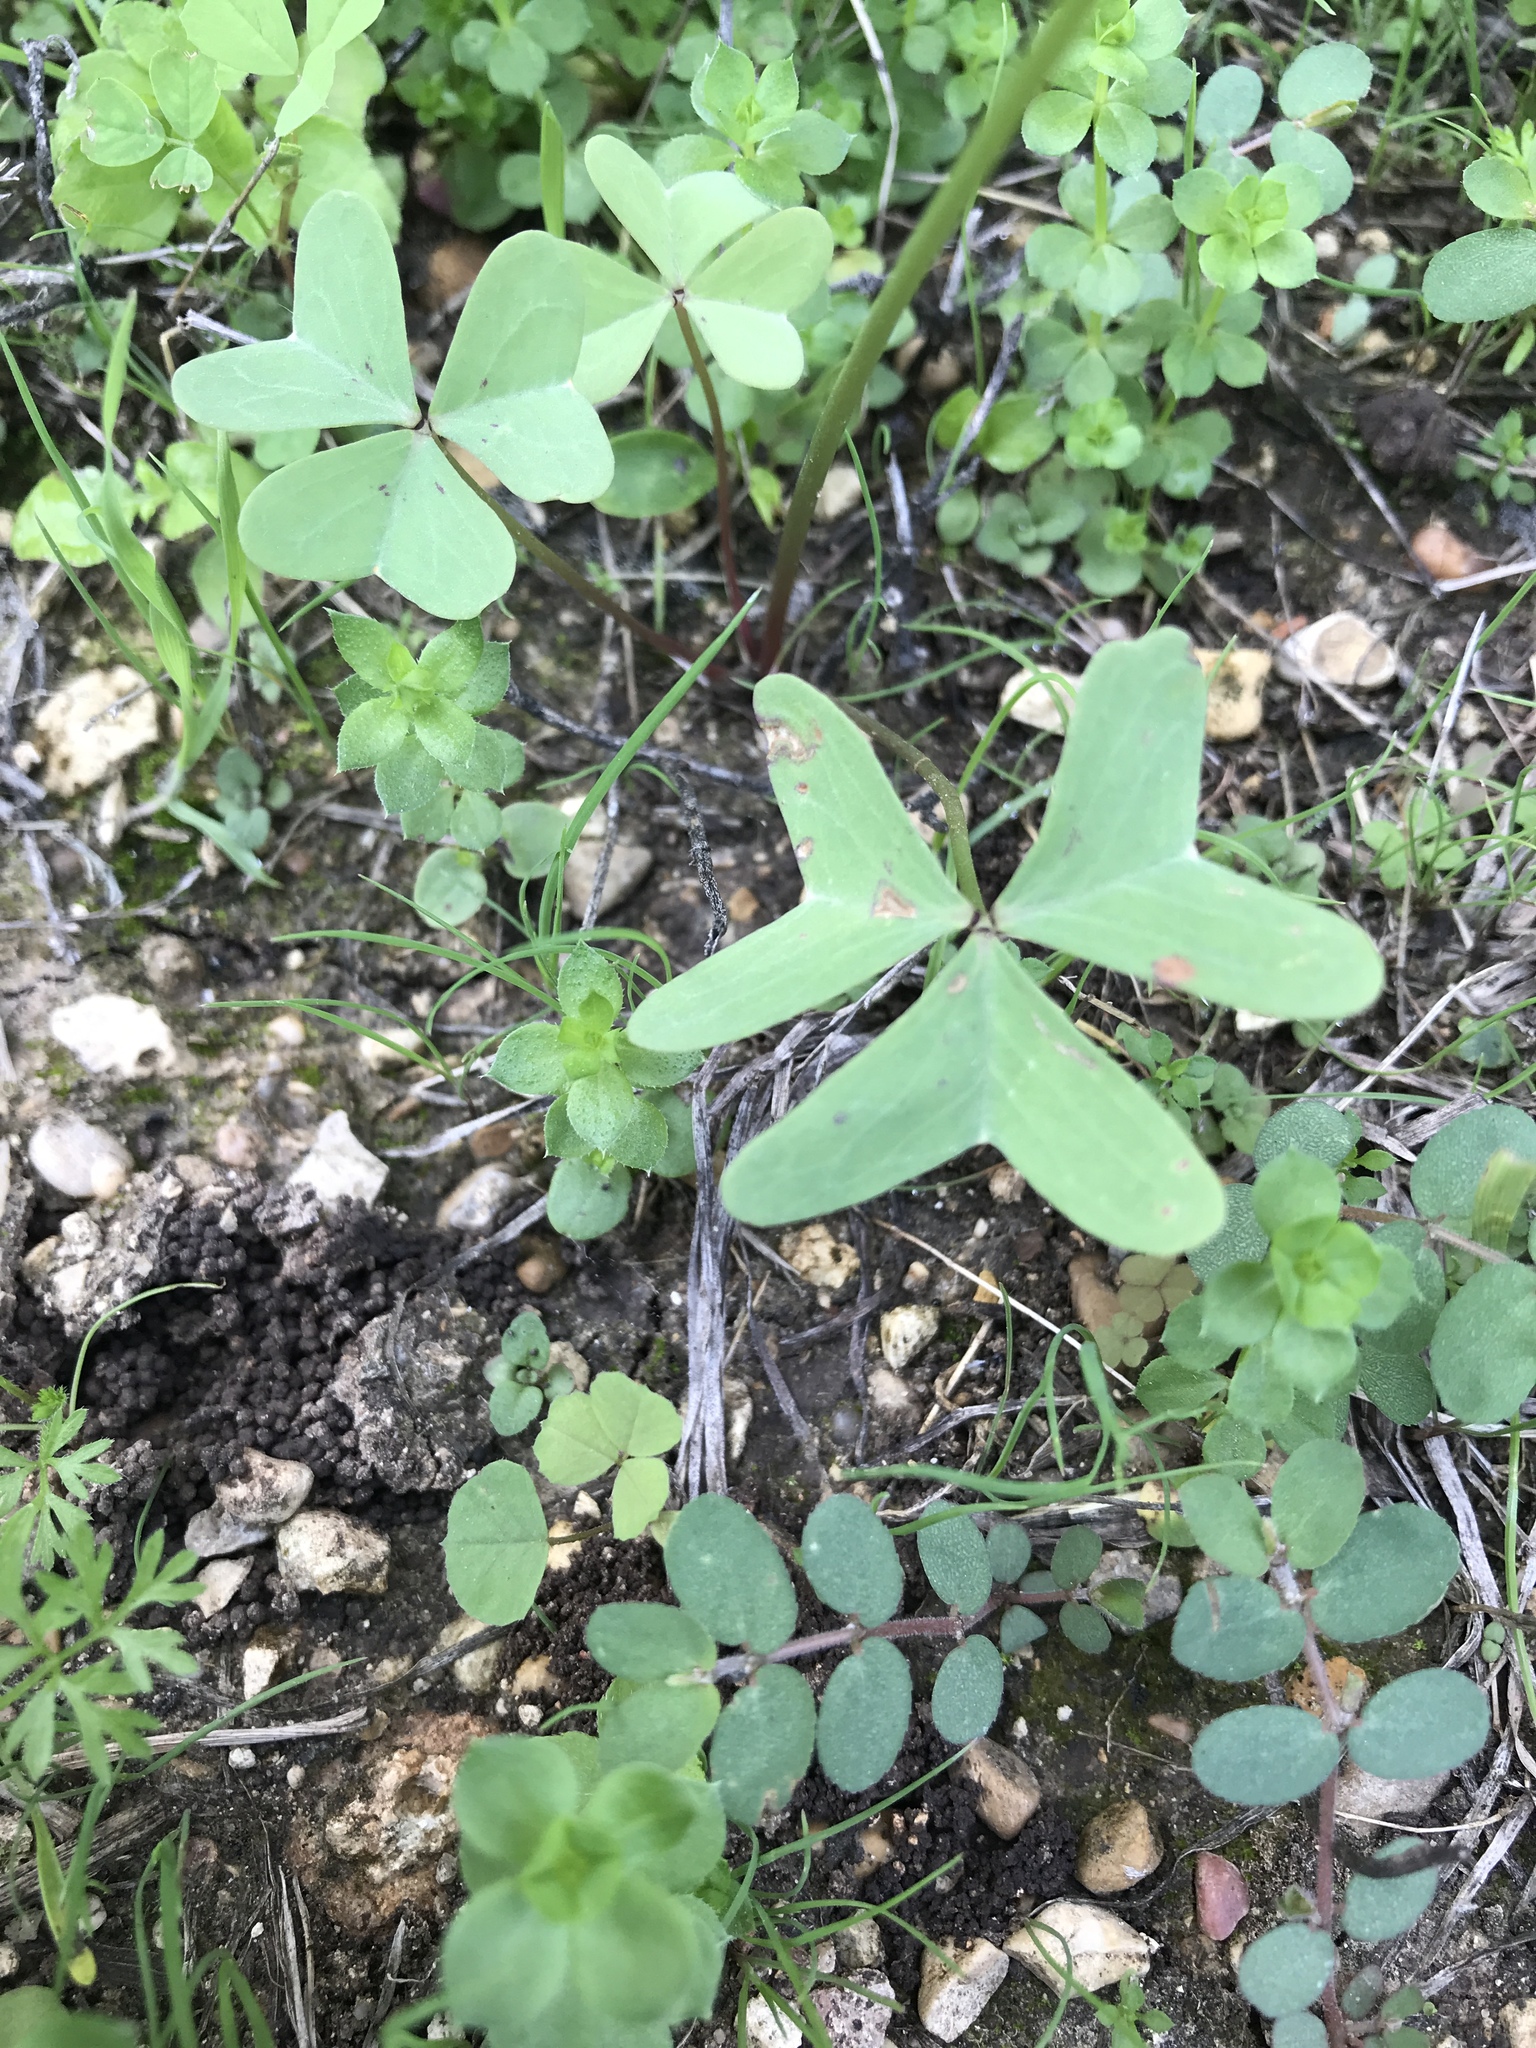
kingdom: Plantae
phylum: Tracheophyta
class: Magnoliopsida
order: Oxalidales
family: Oxalidaceae
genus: Oxalis
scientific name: Oxalis drummondii
